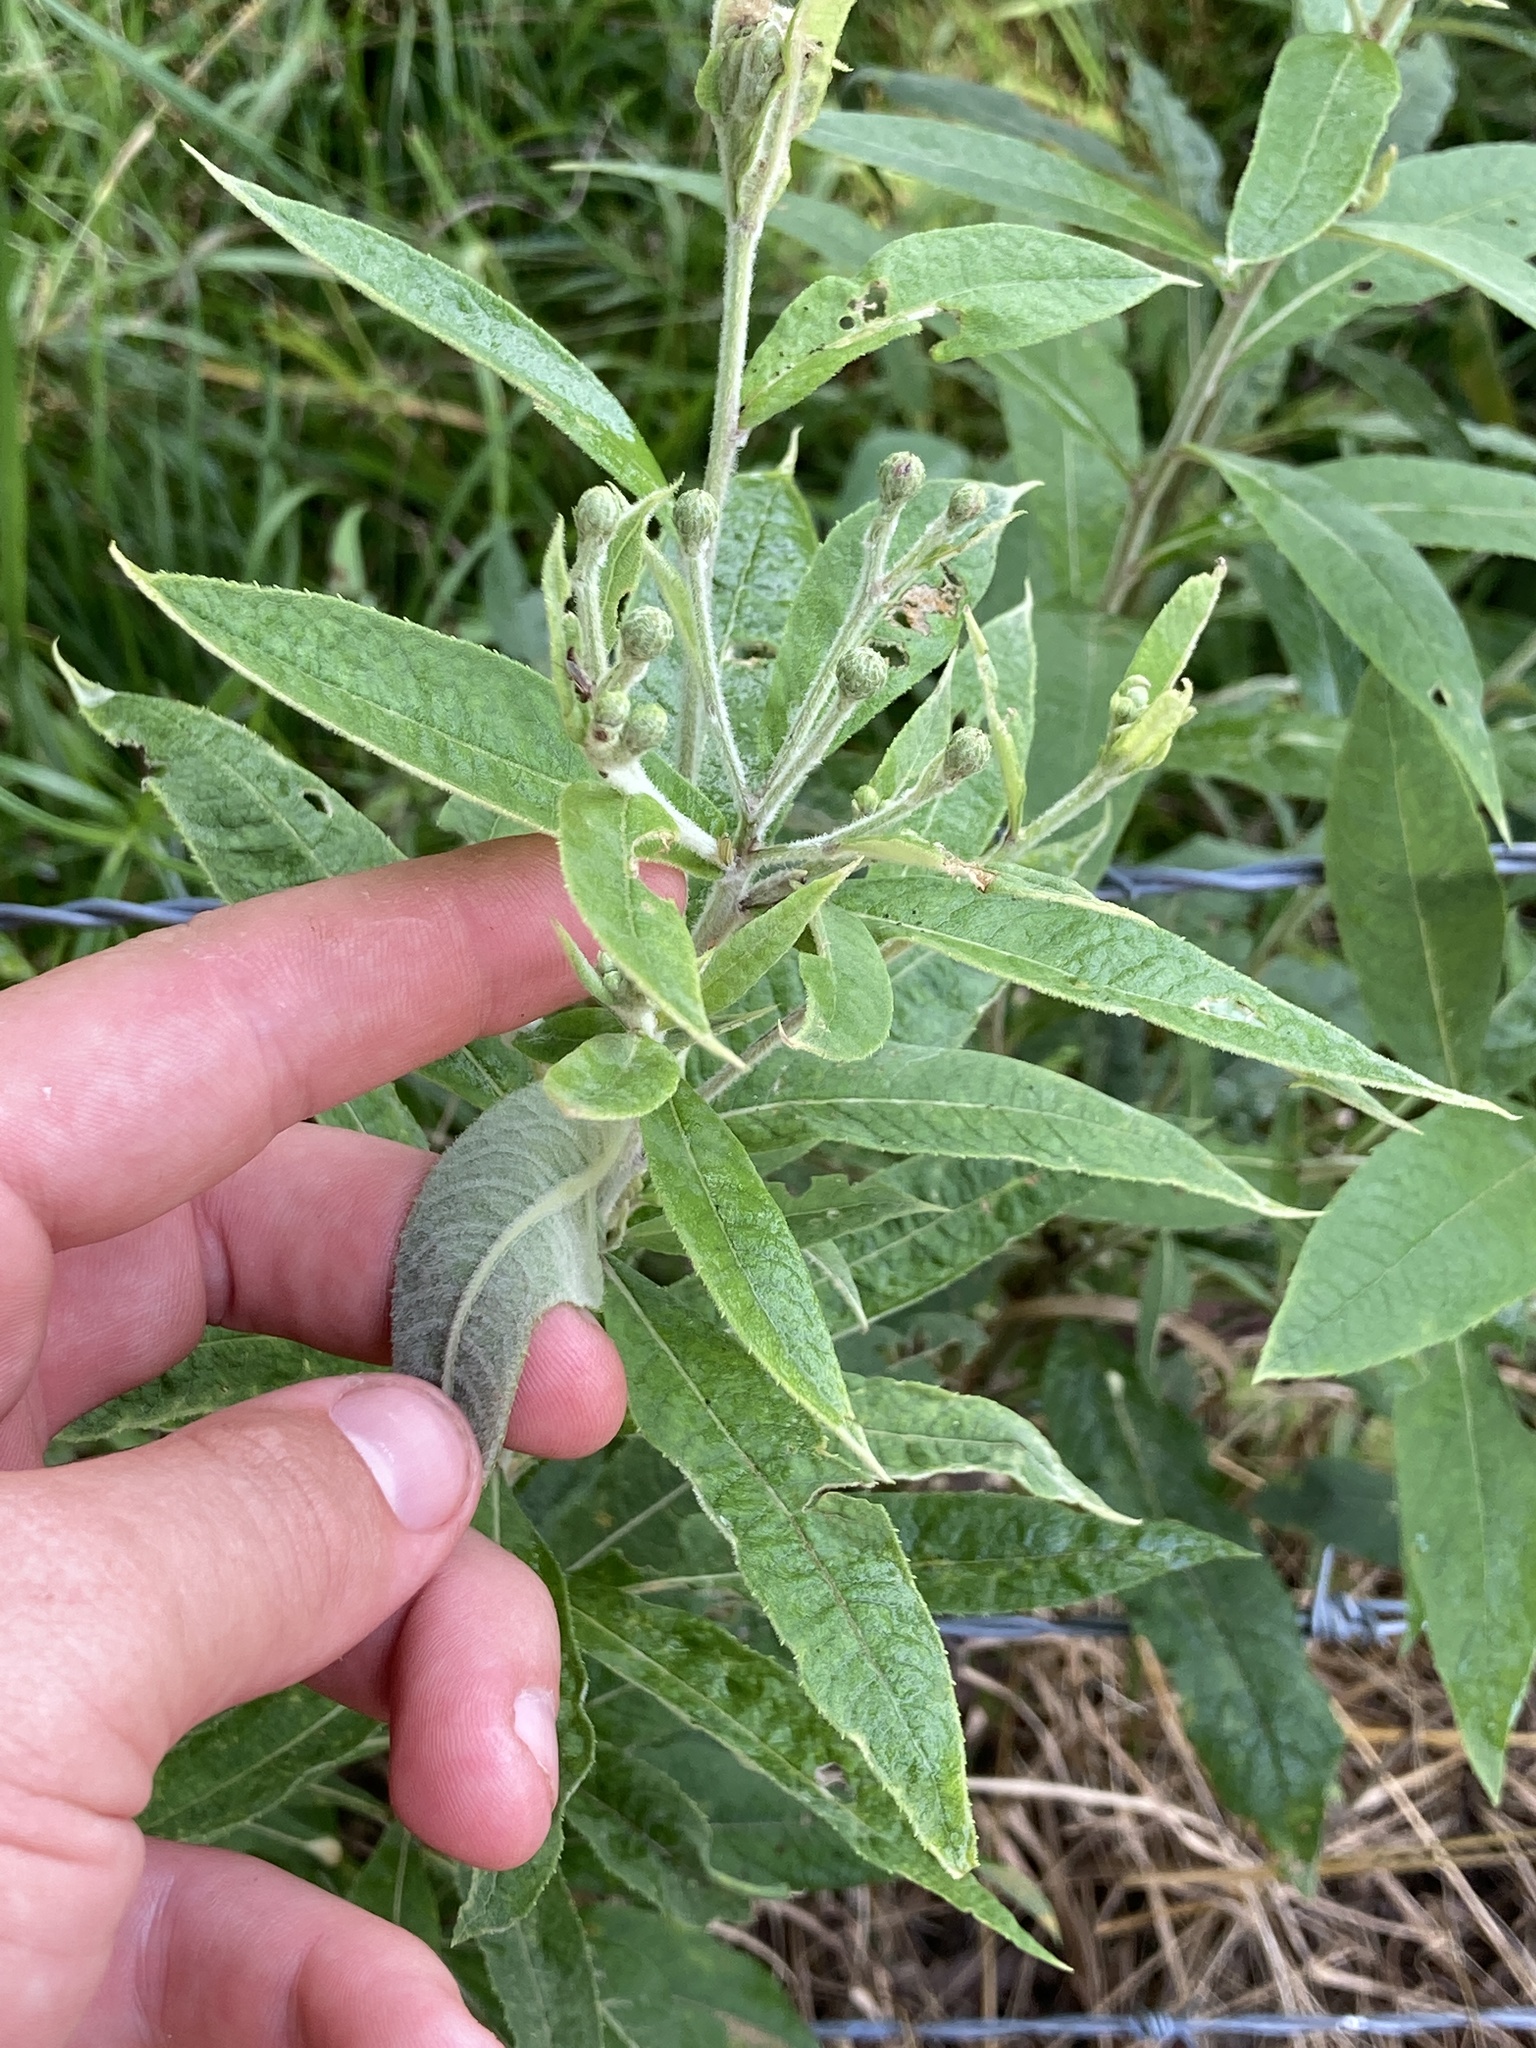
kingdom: Plantae
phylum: Tracheophyta
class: Magnoliopsida
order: Asterales
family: Asteraceae
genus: Vernonia
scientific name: Vernonia missurica
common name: Missouri ironweed
